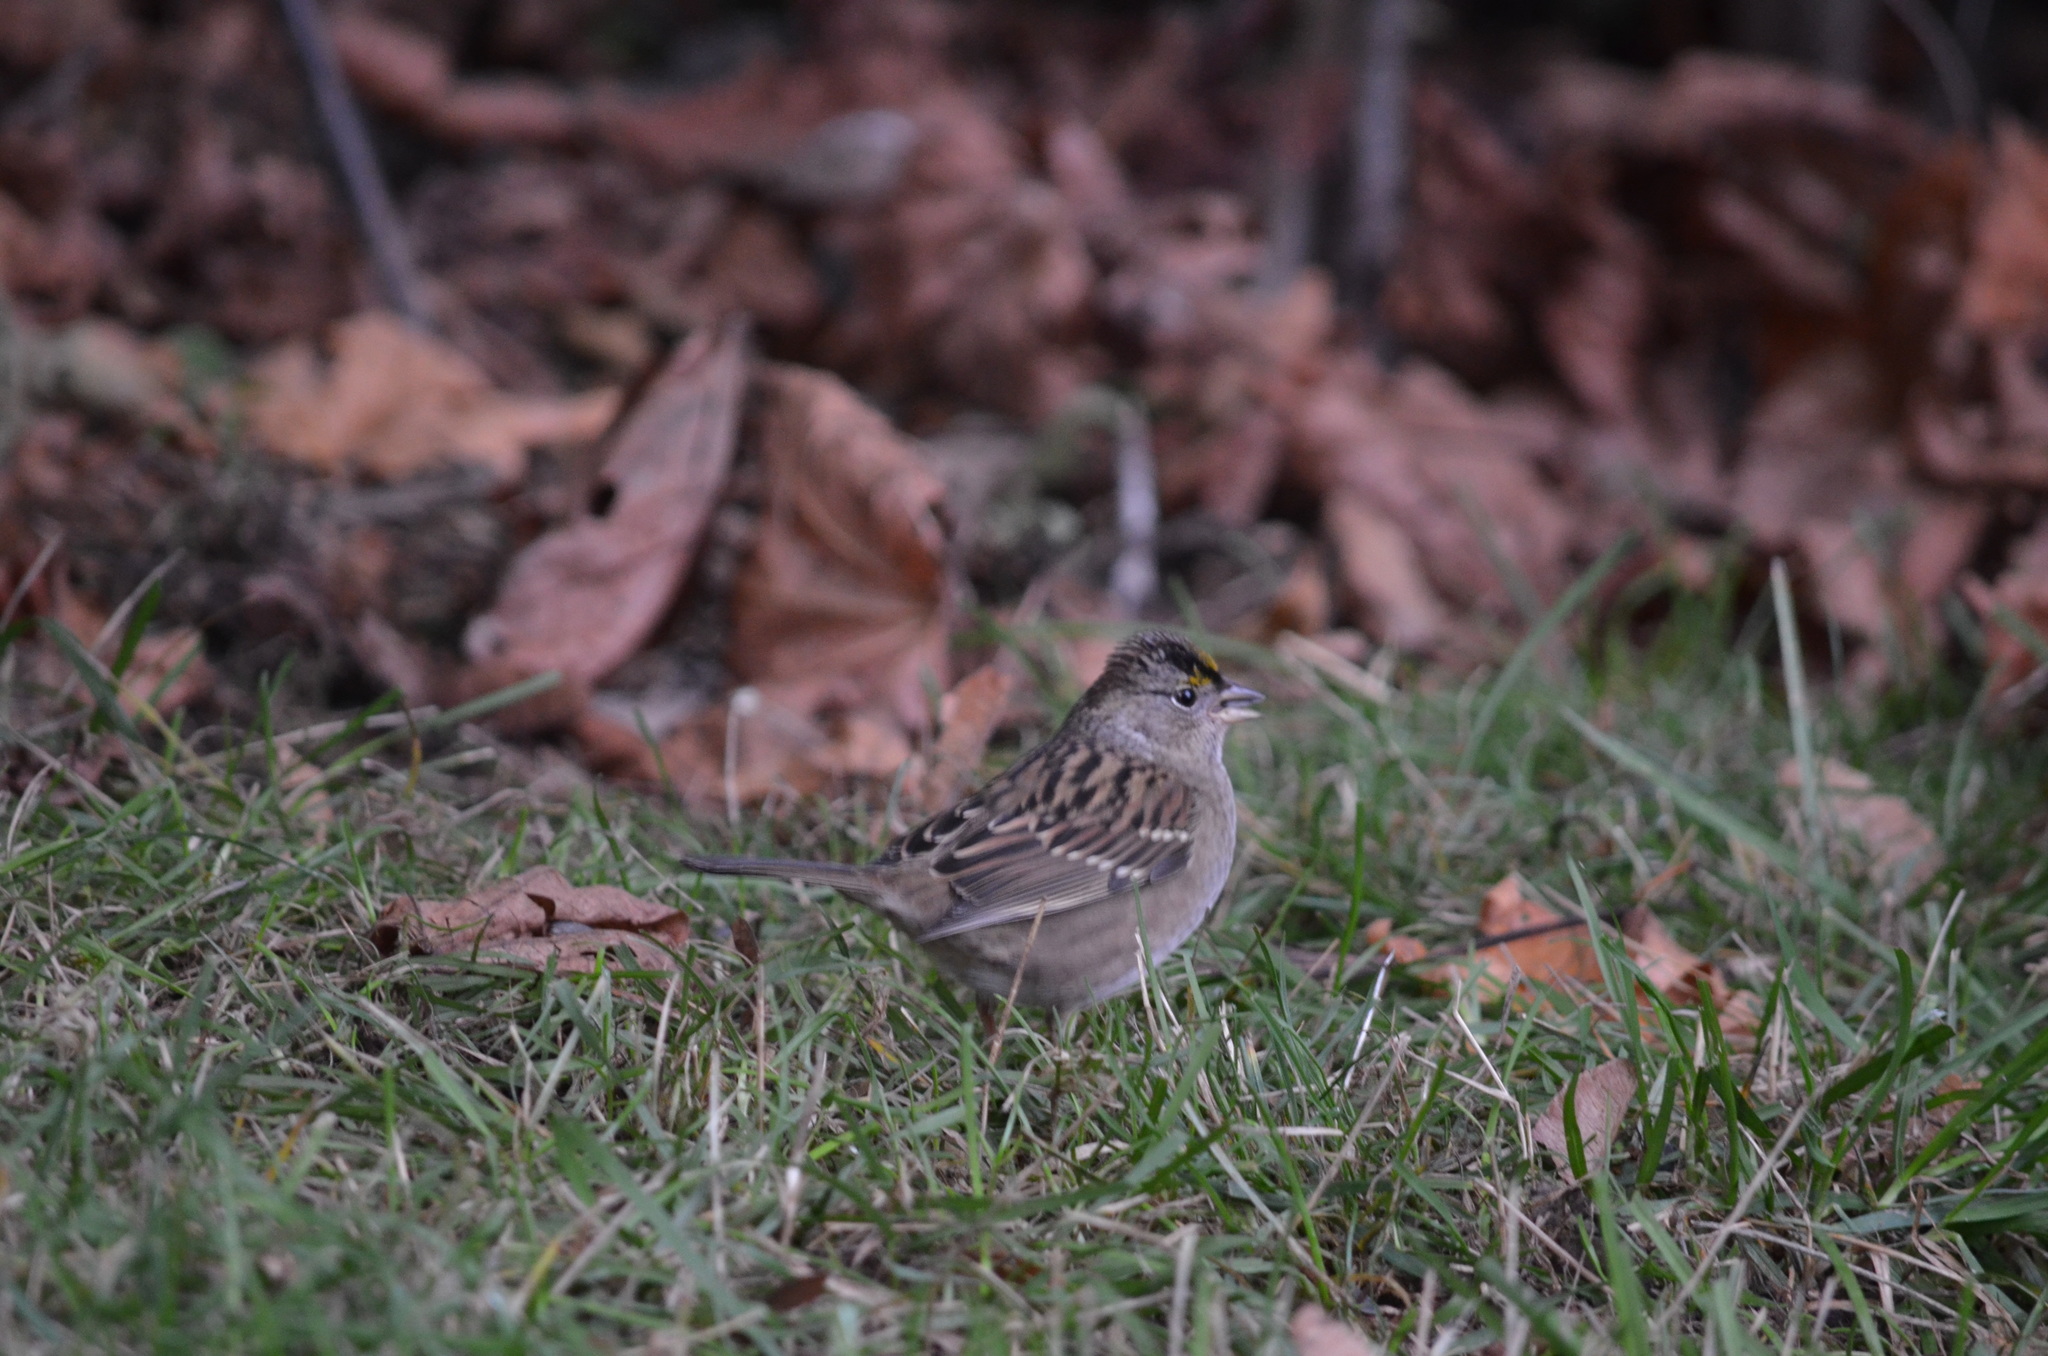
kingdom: Animalia
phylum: Chordata
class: Aves
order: Passeriformes
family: Passerellidae
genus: Zonotrichia
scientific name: Zonotrichia atricapilla
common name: Golden-crowned sparrow
